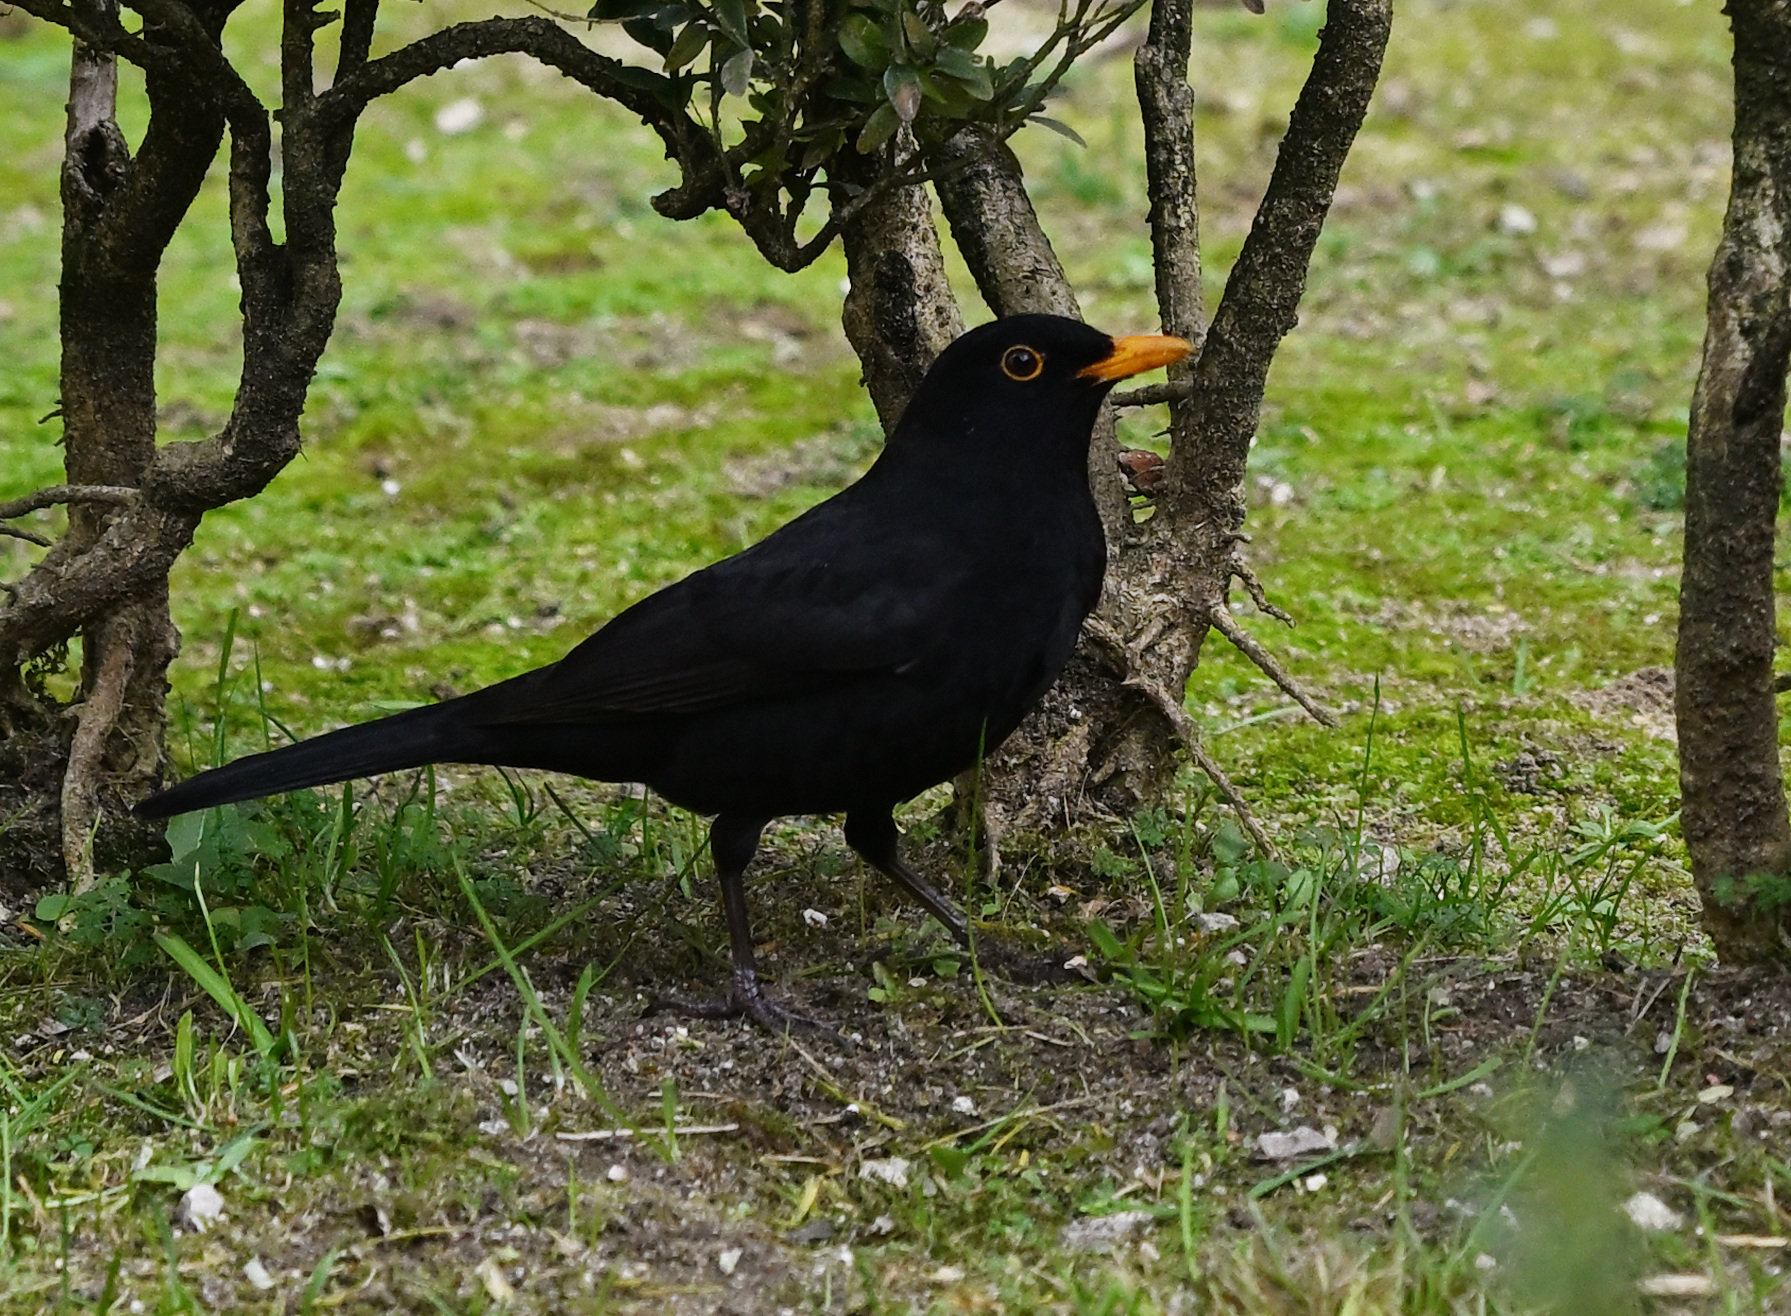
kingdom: Animalia
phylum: Chordata
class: Aves
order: Passeriformes
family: Turdidae
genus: Turdus
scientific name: Turdus merula
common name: Common blackbird
